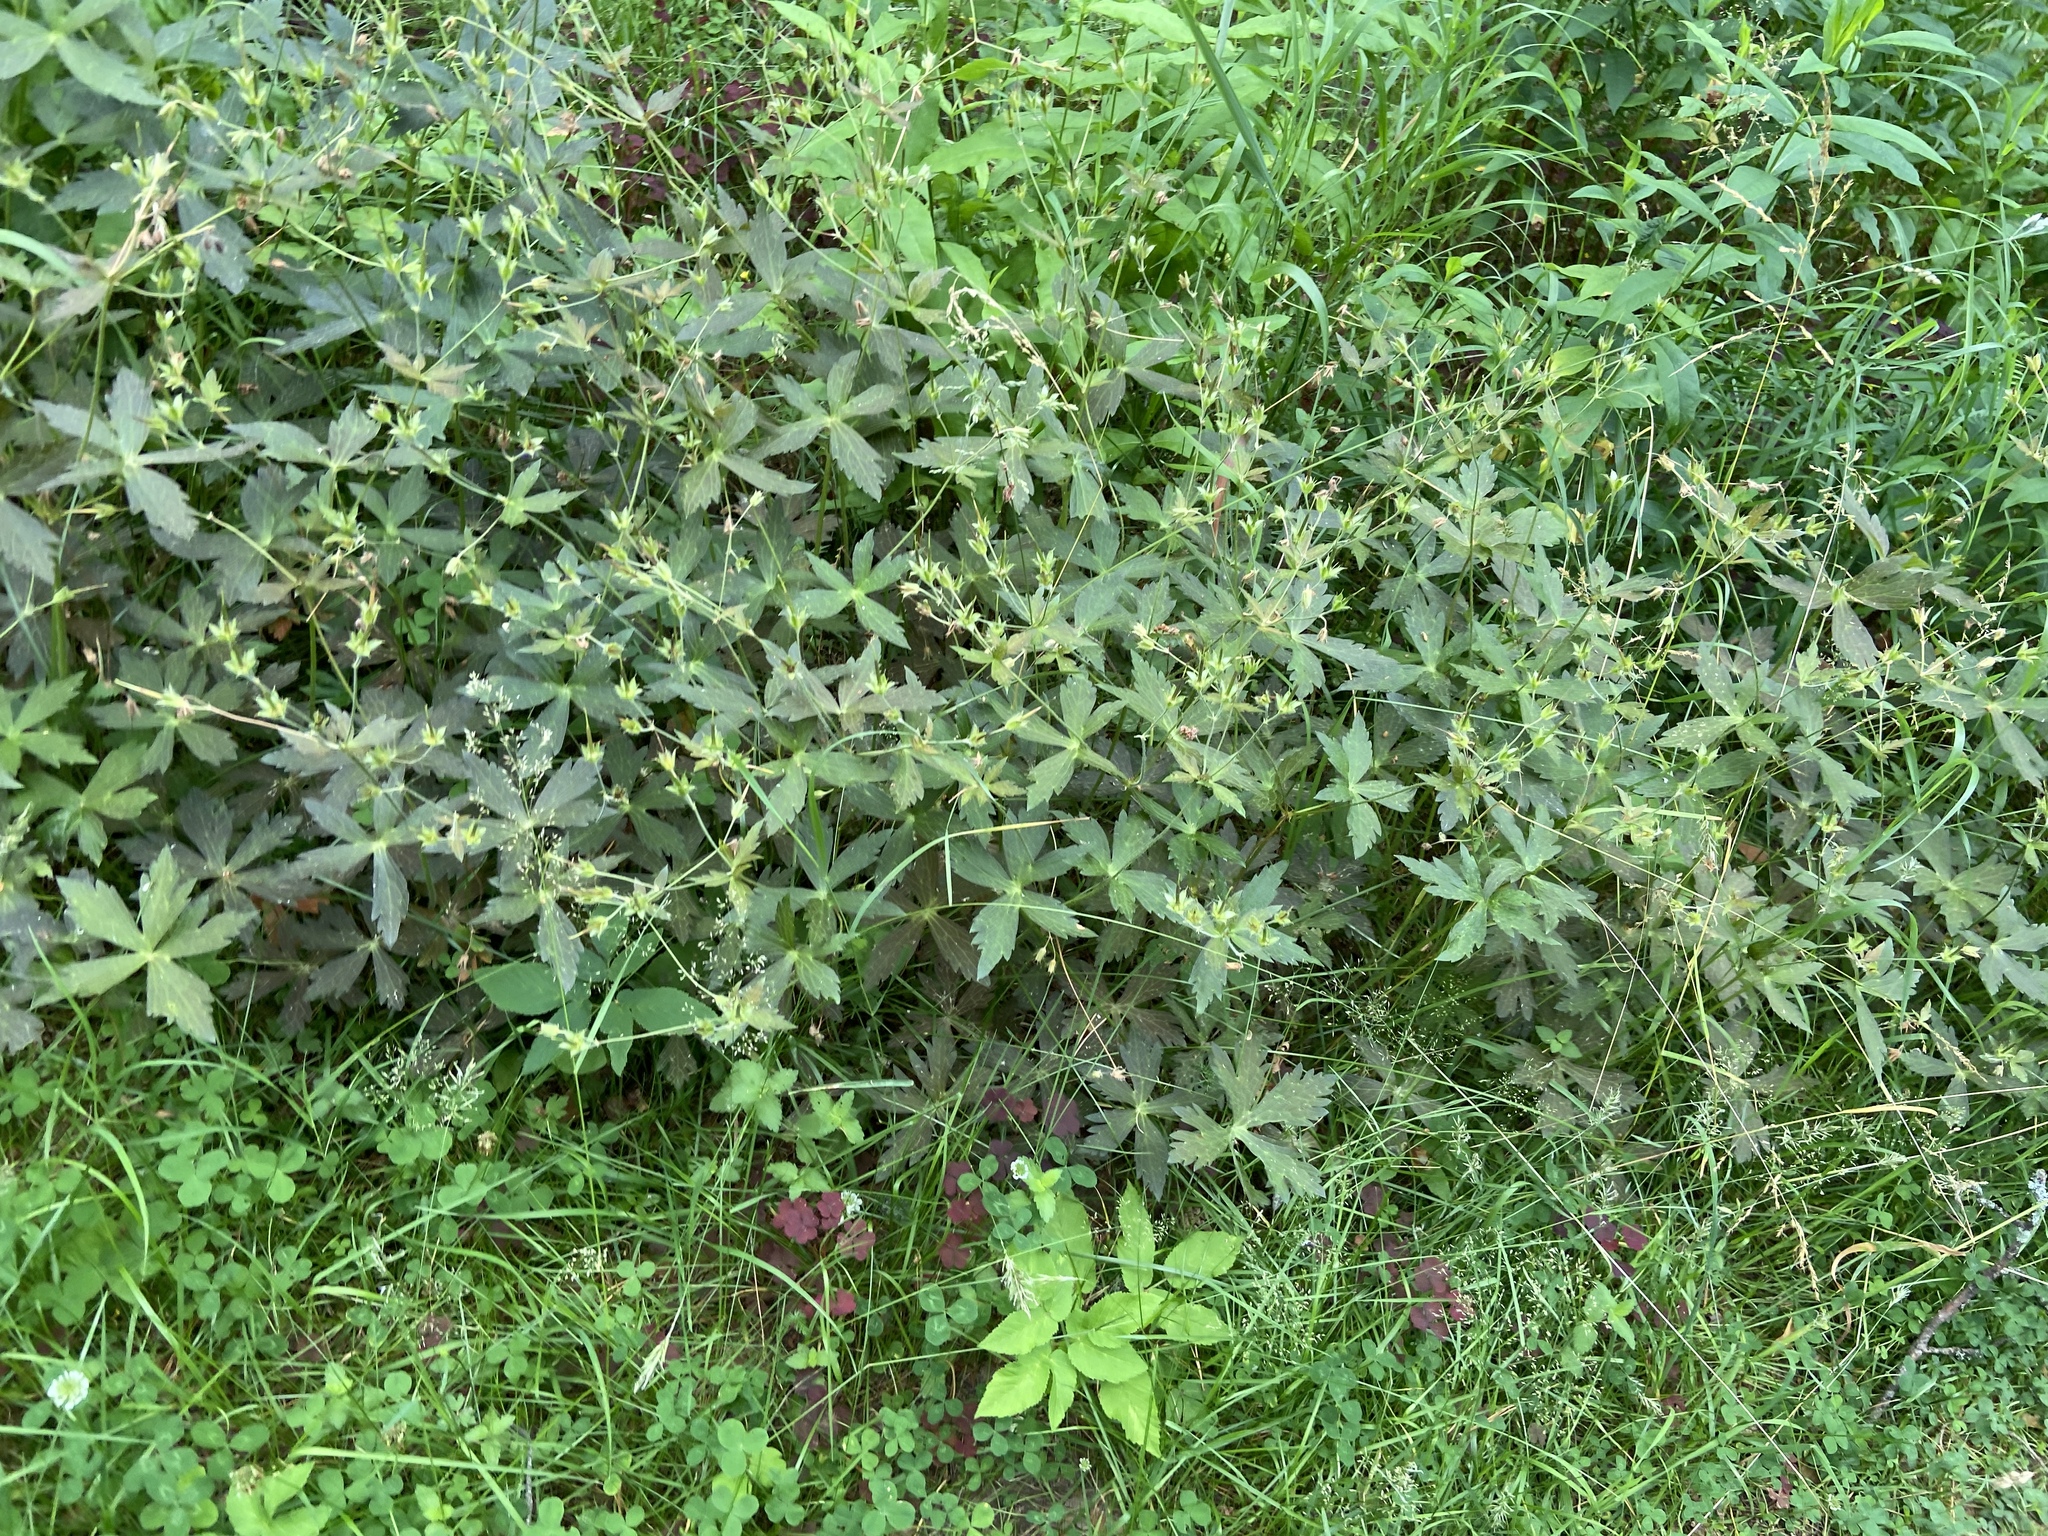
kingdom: Plantae
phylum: Tracheophyta
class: Magnoliopsida
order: Geraniales
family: Geraniaceae
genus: Geranium
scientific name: Geranium sibiricum
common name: Siberian crane's-bill
